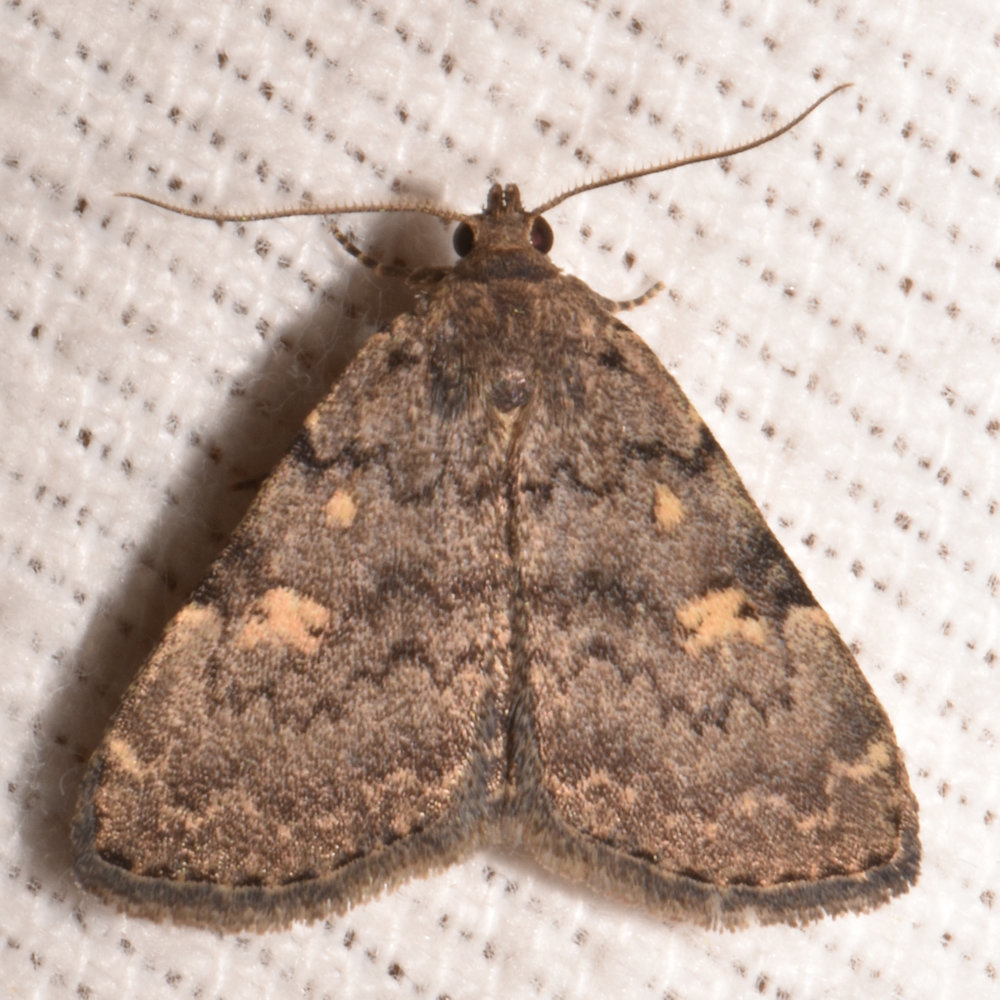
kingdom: Animalia
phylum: Arthropoda
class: Insecta
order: Lepidoptera
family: Erebidae
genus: Idia
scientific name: Idia aemula
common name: Common idia moth
